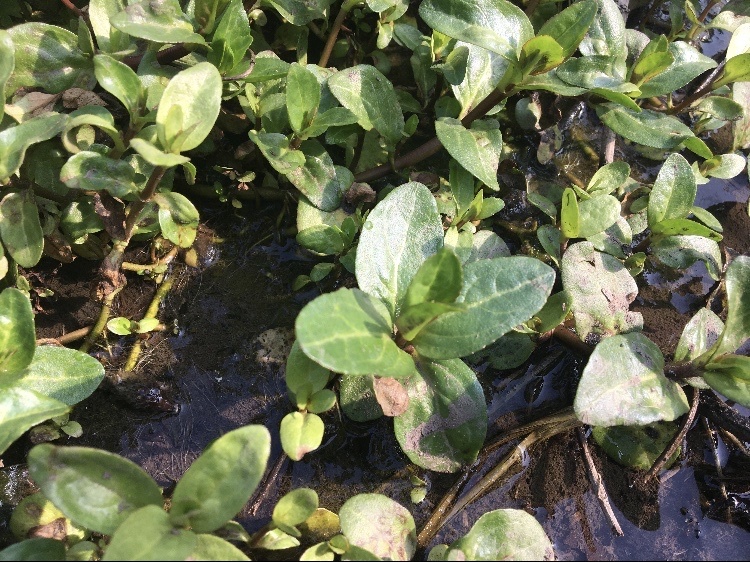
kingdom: Plantae
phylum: Tracheophyta
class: Magnoliopsida
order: Lamiales
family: Plantaginaceae
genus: Veronica
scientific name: Veronica beccabunga
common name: Brooklime
